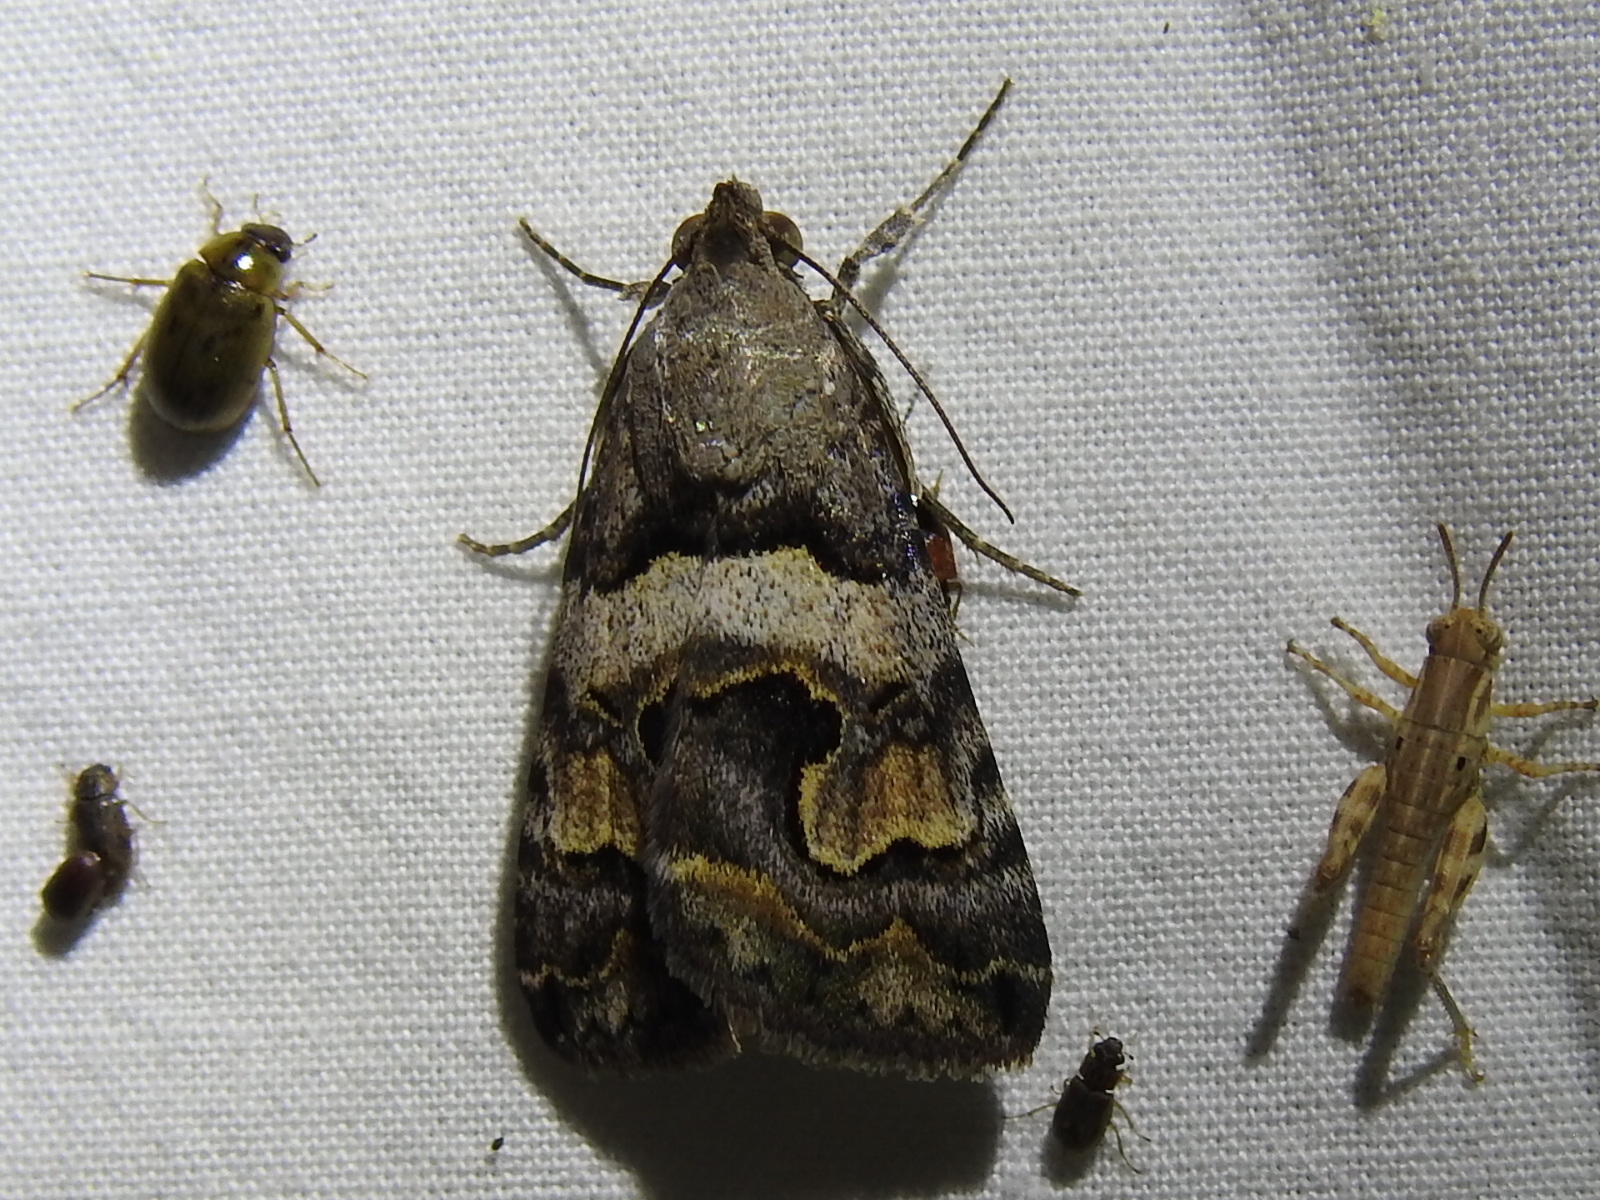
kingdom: Animalia
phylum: Arthropoda
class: Insecta
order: Lepidoptera
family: Erebidae
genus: Bulia
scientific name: Bulia deducta
